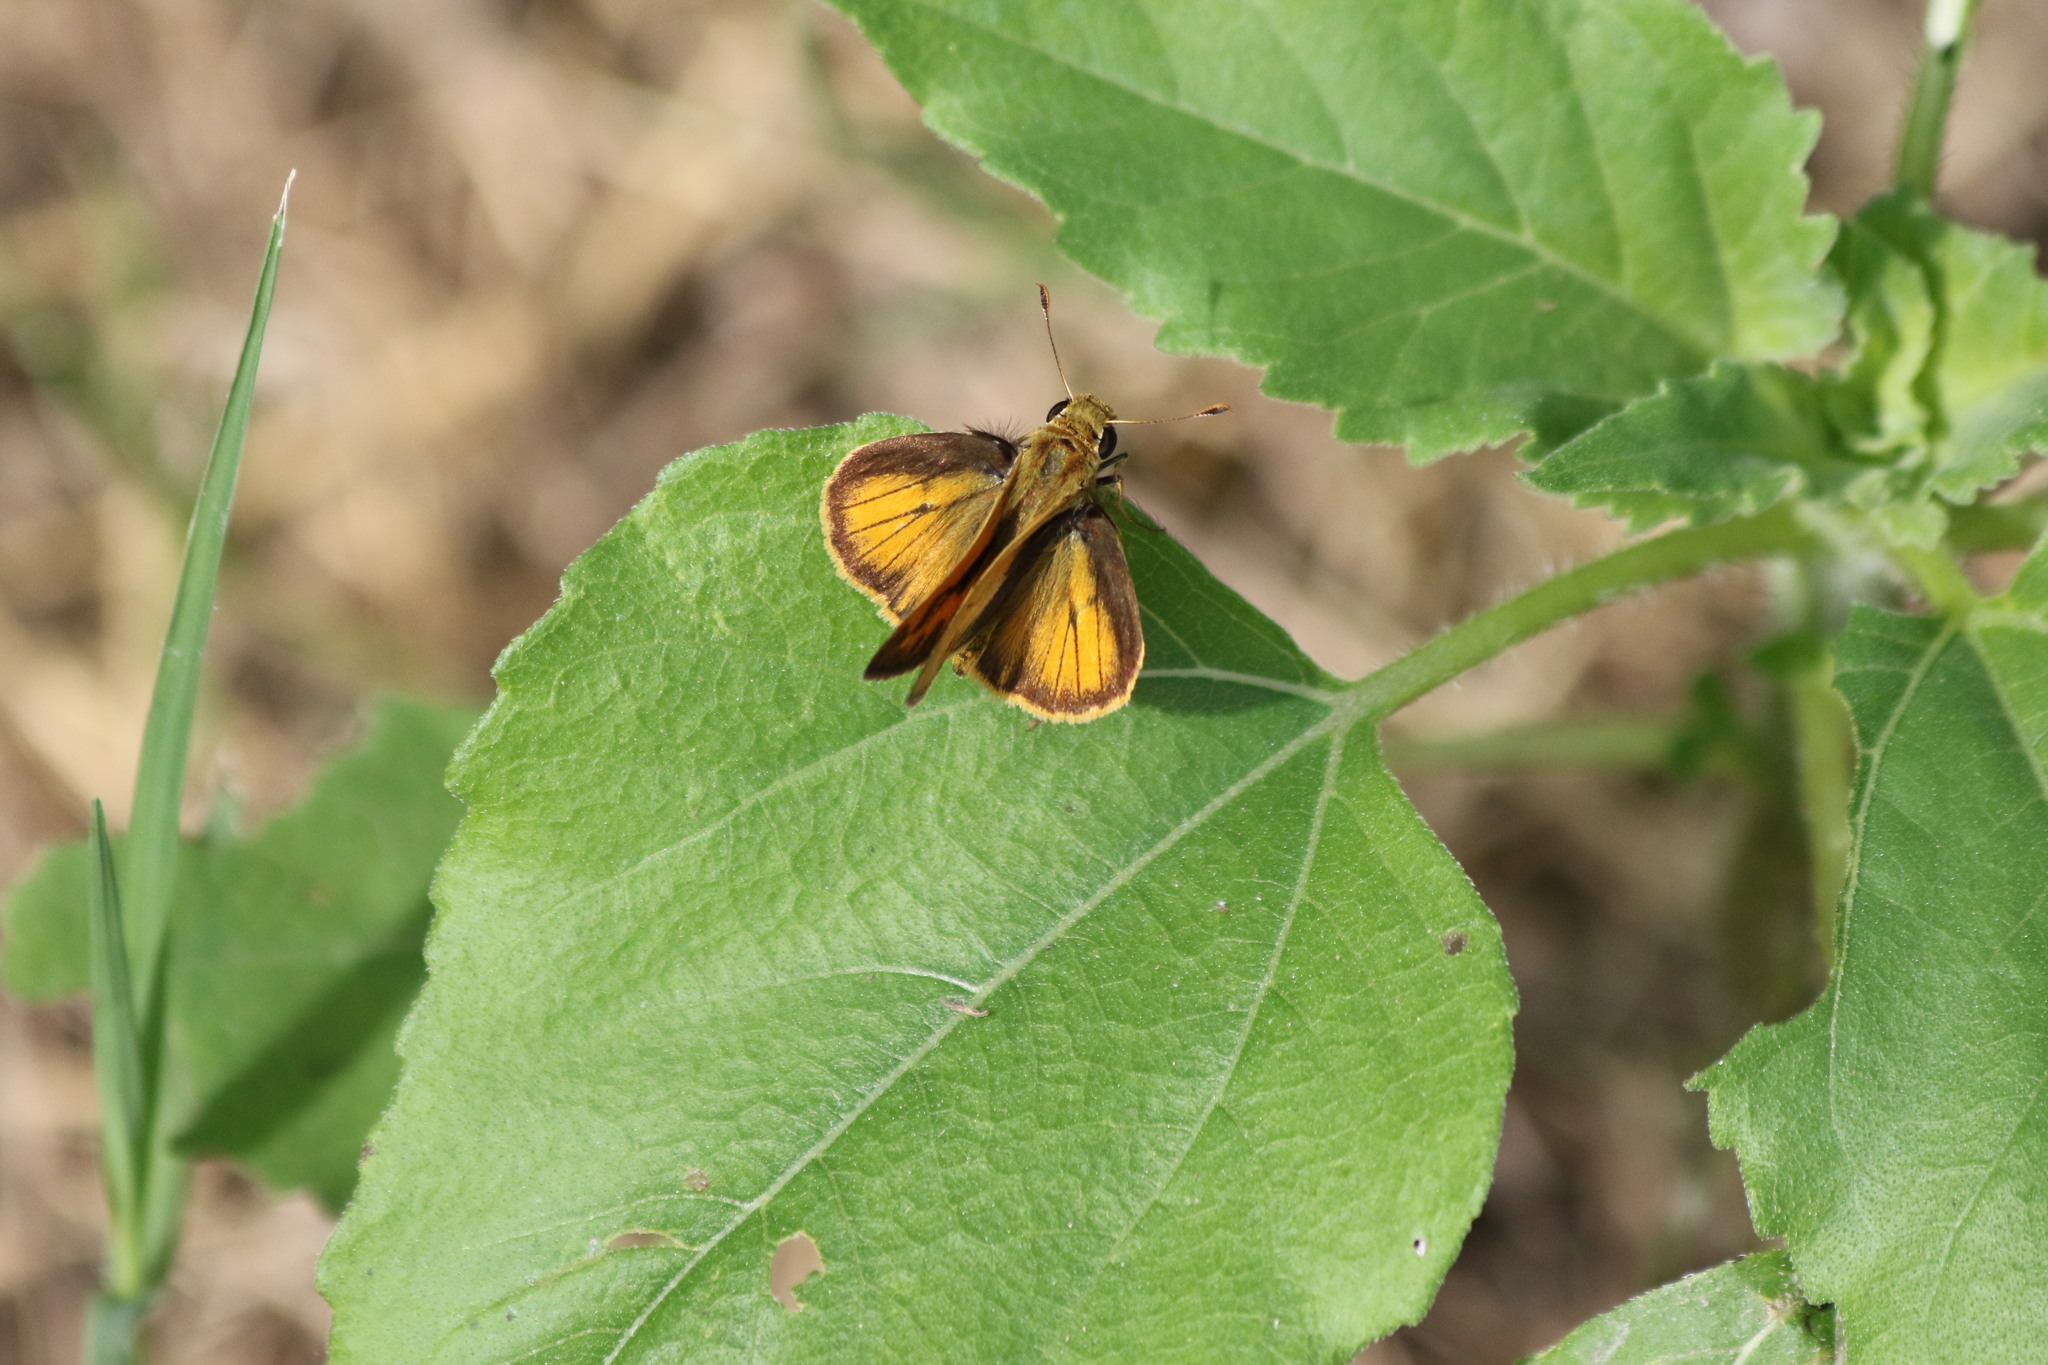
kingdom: Animalia
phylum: Arthropoda
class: Insecta
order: Lepidoptera
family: Hesperiidae
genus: Polites
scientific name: Polites vibex
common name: Whirlabout
